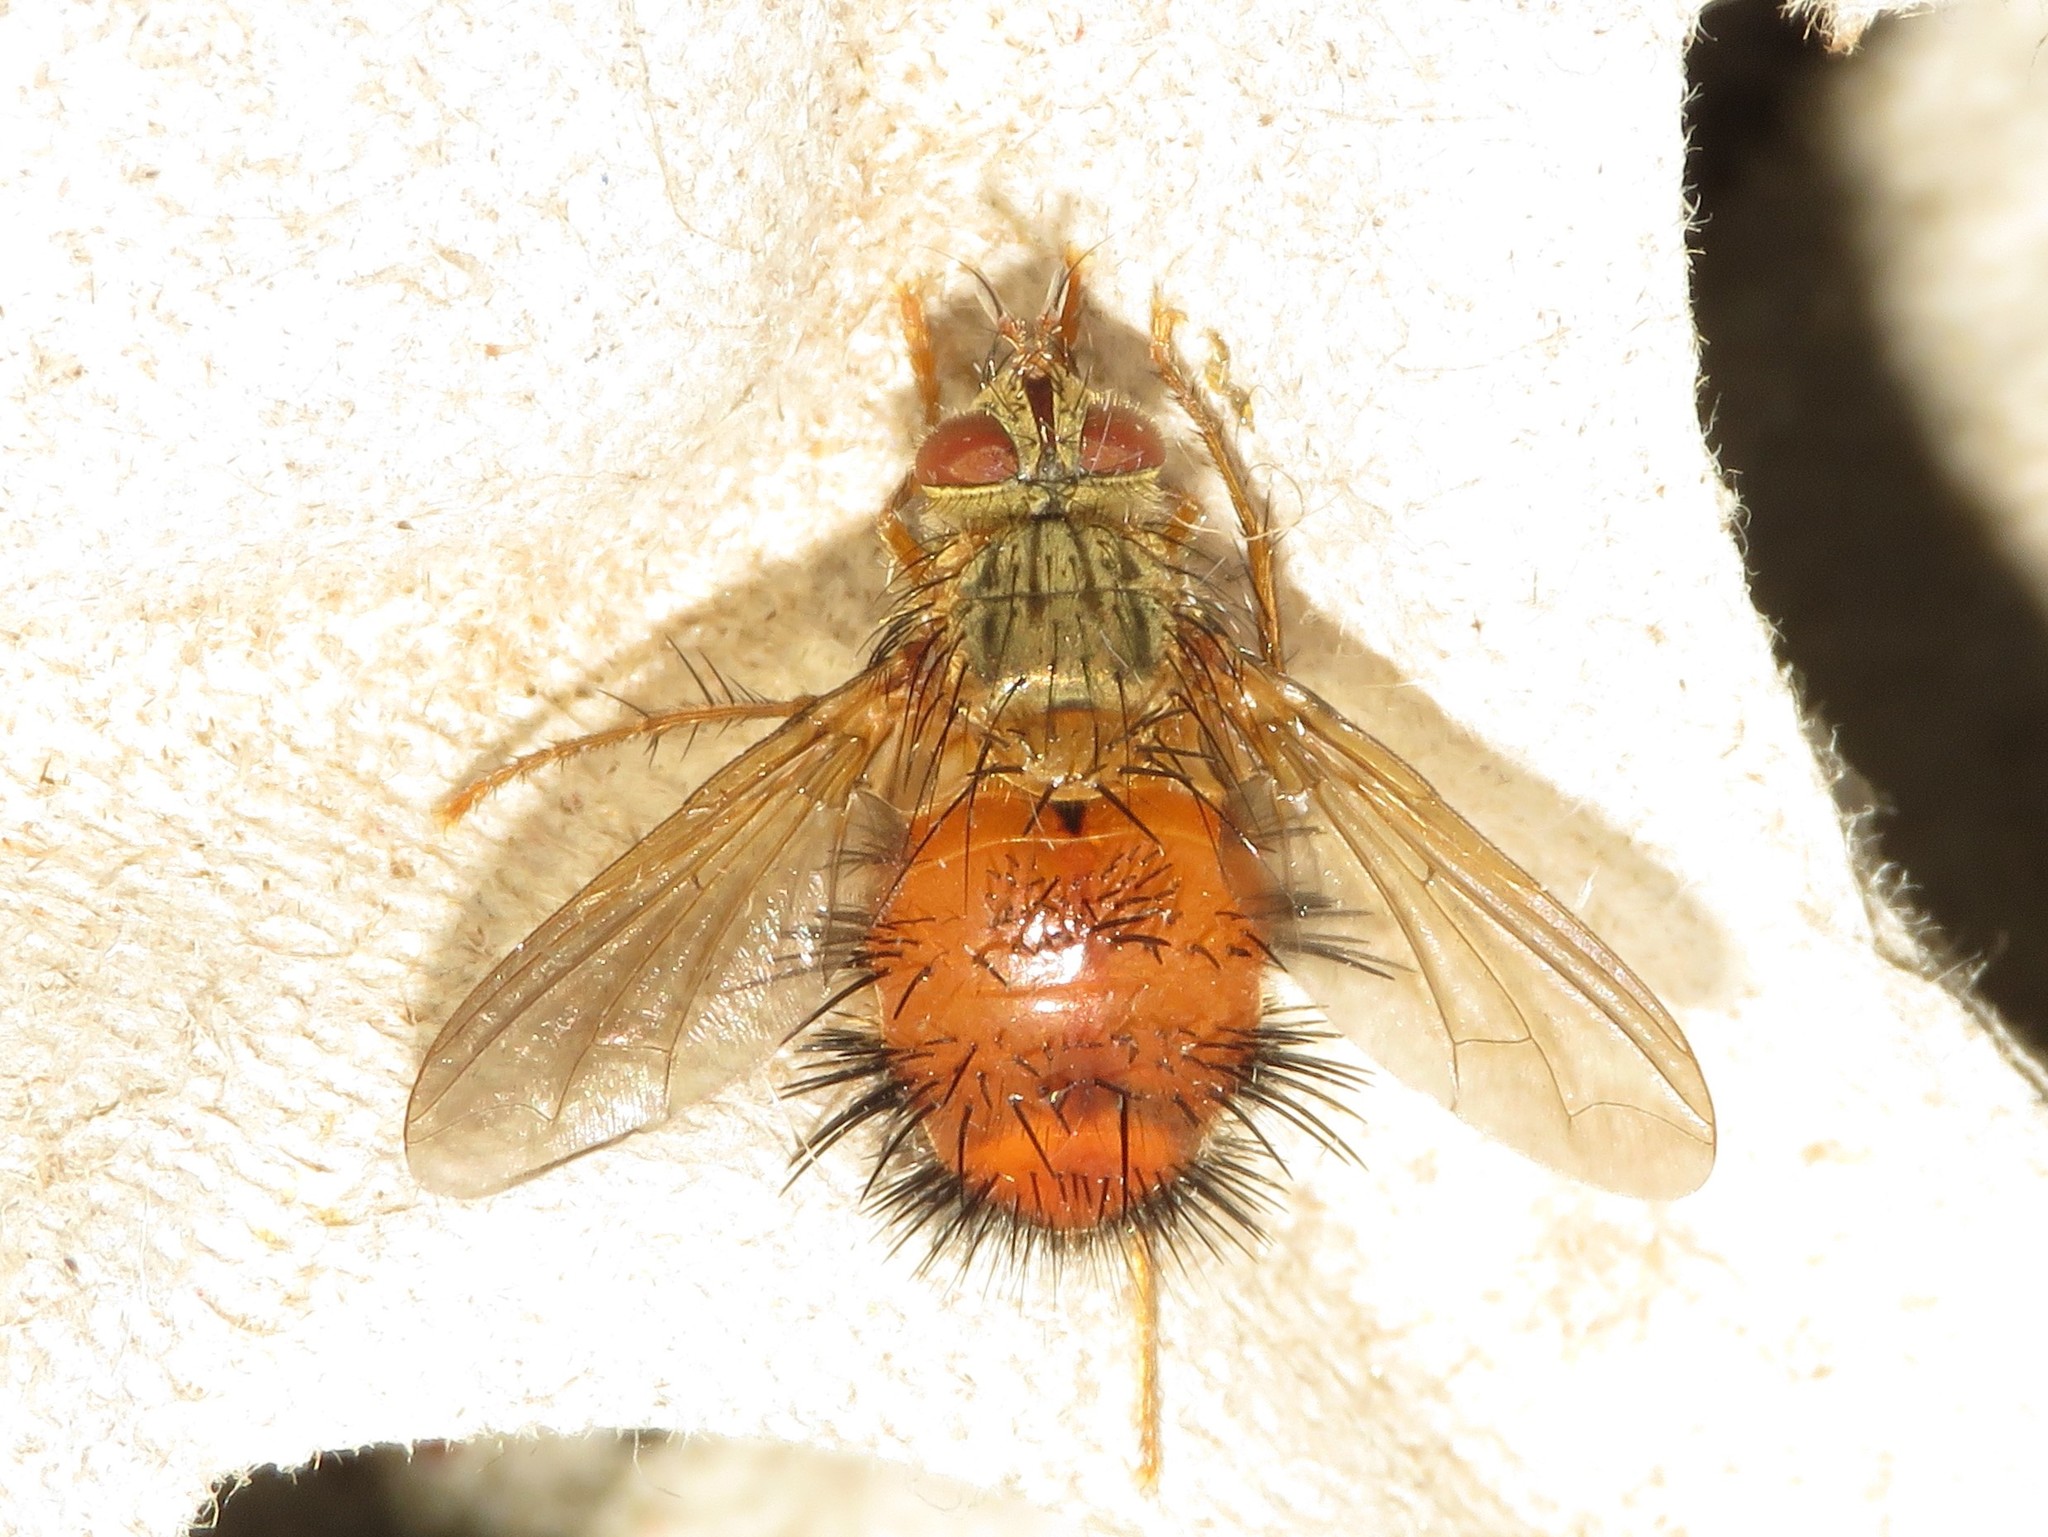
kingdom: Animalia
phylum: Arthropoda
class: Insecta
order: Diptera
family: Tachinidae
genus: Hystricia
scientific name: Hystricia abrupta
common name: Tomato bristle fly
